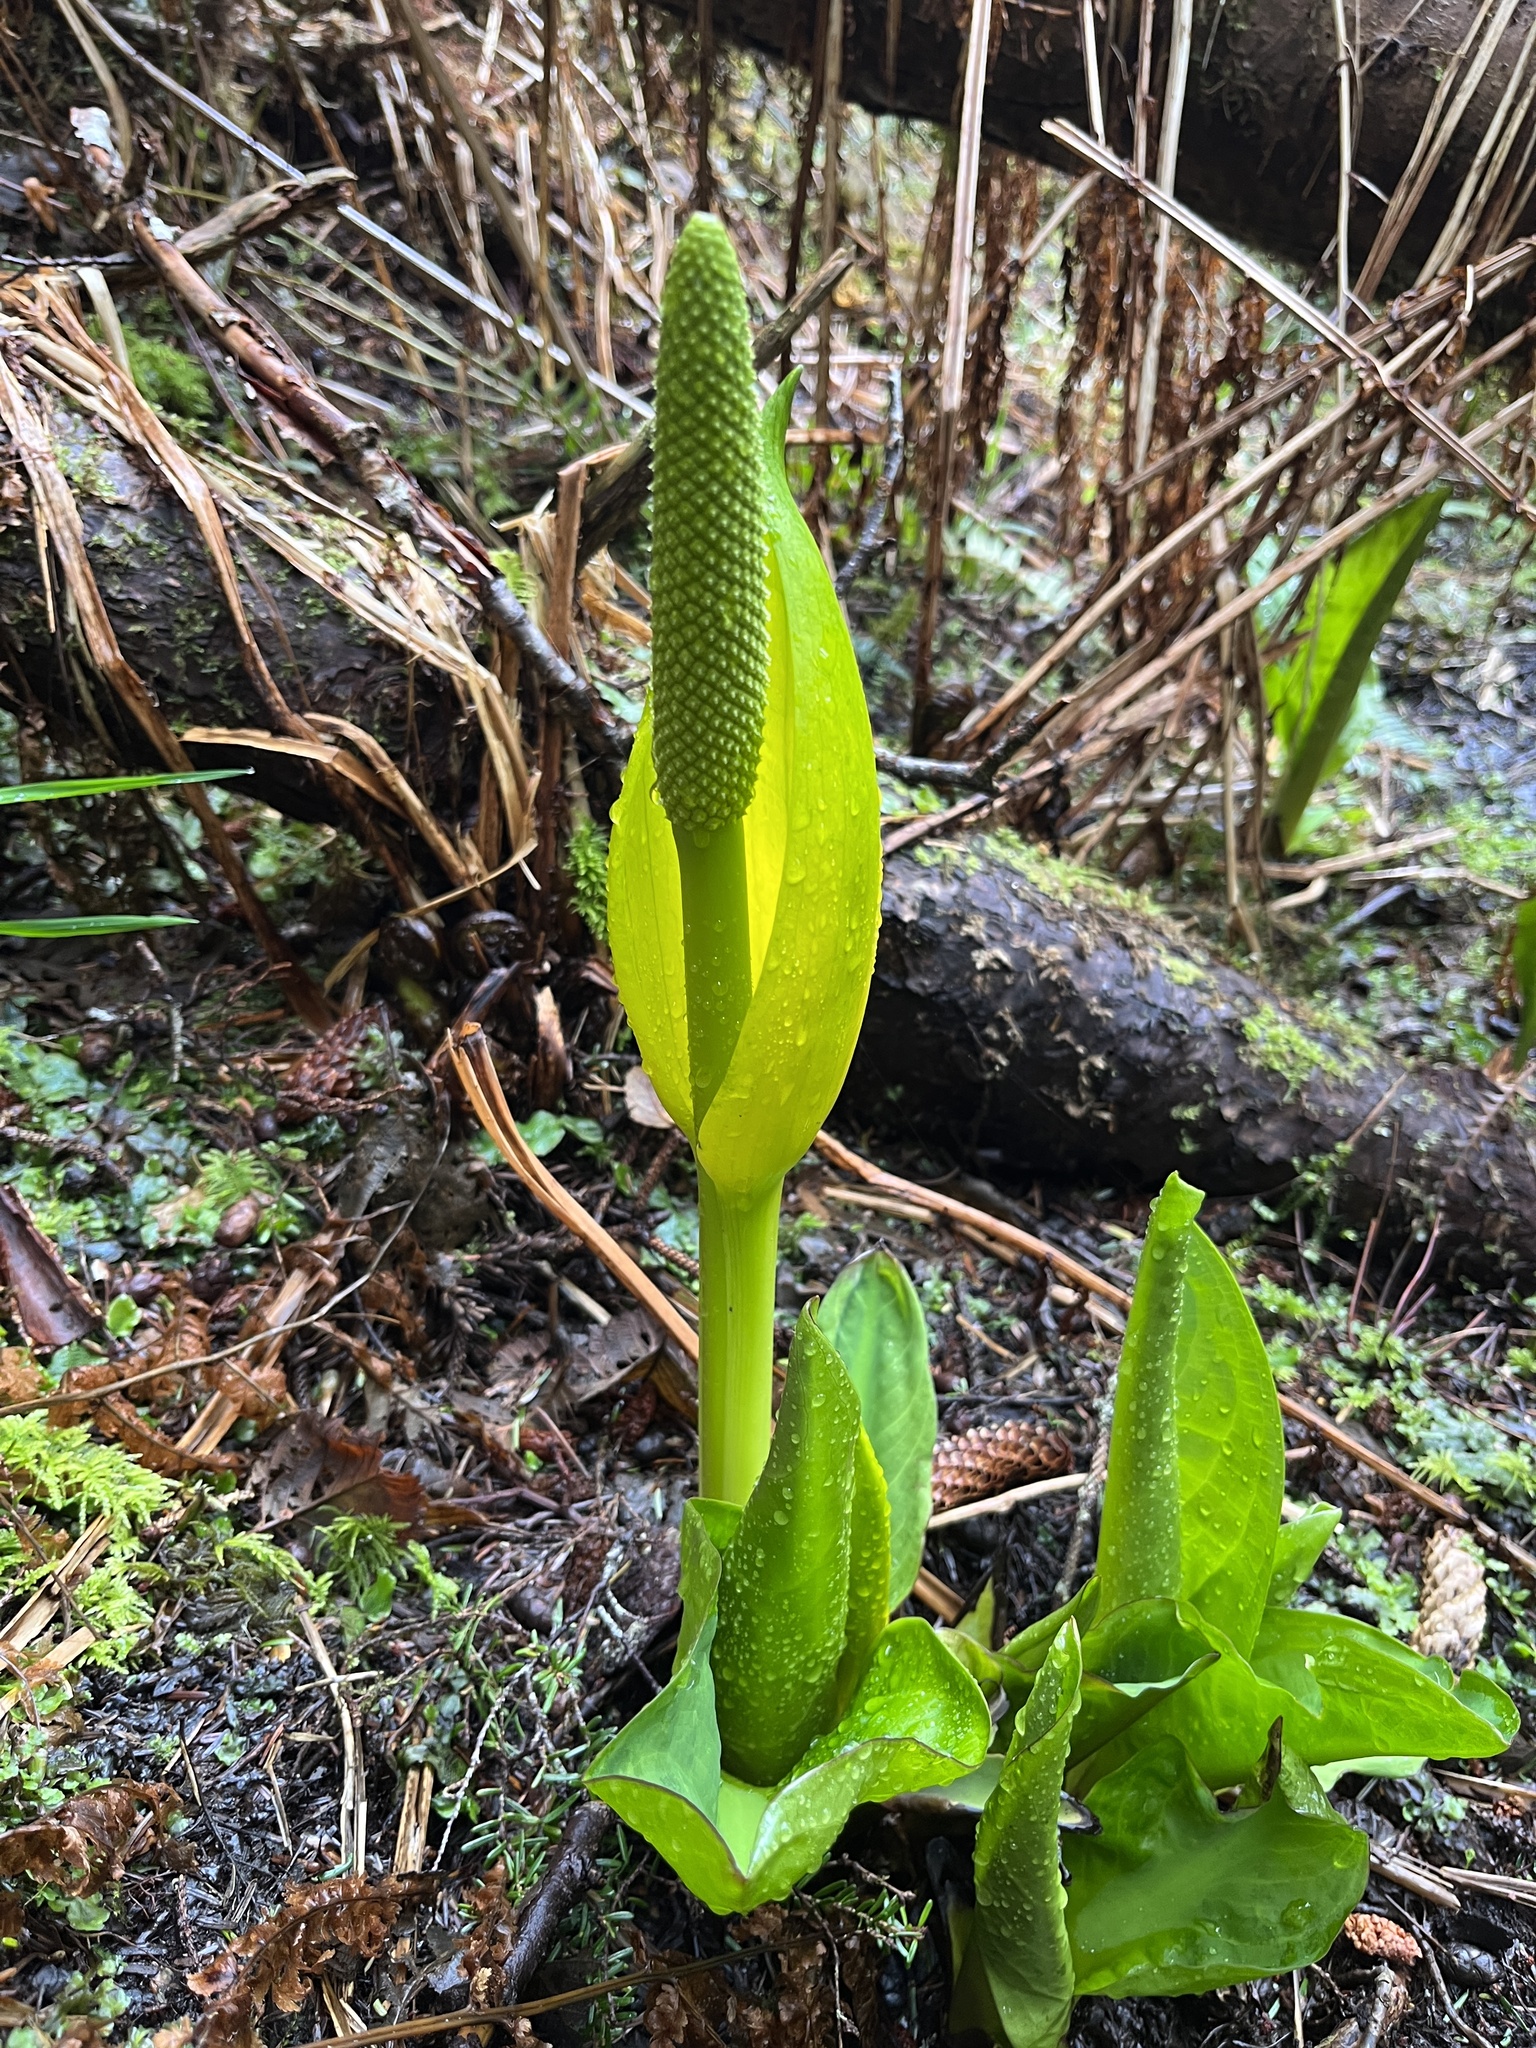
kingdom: Plantae
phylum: Tracheophyta
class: Liliopsida
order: Alismatales
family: Araceae
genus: Lysichiton
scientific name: Lysichiton americanus
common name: American skunk cabbage
